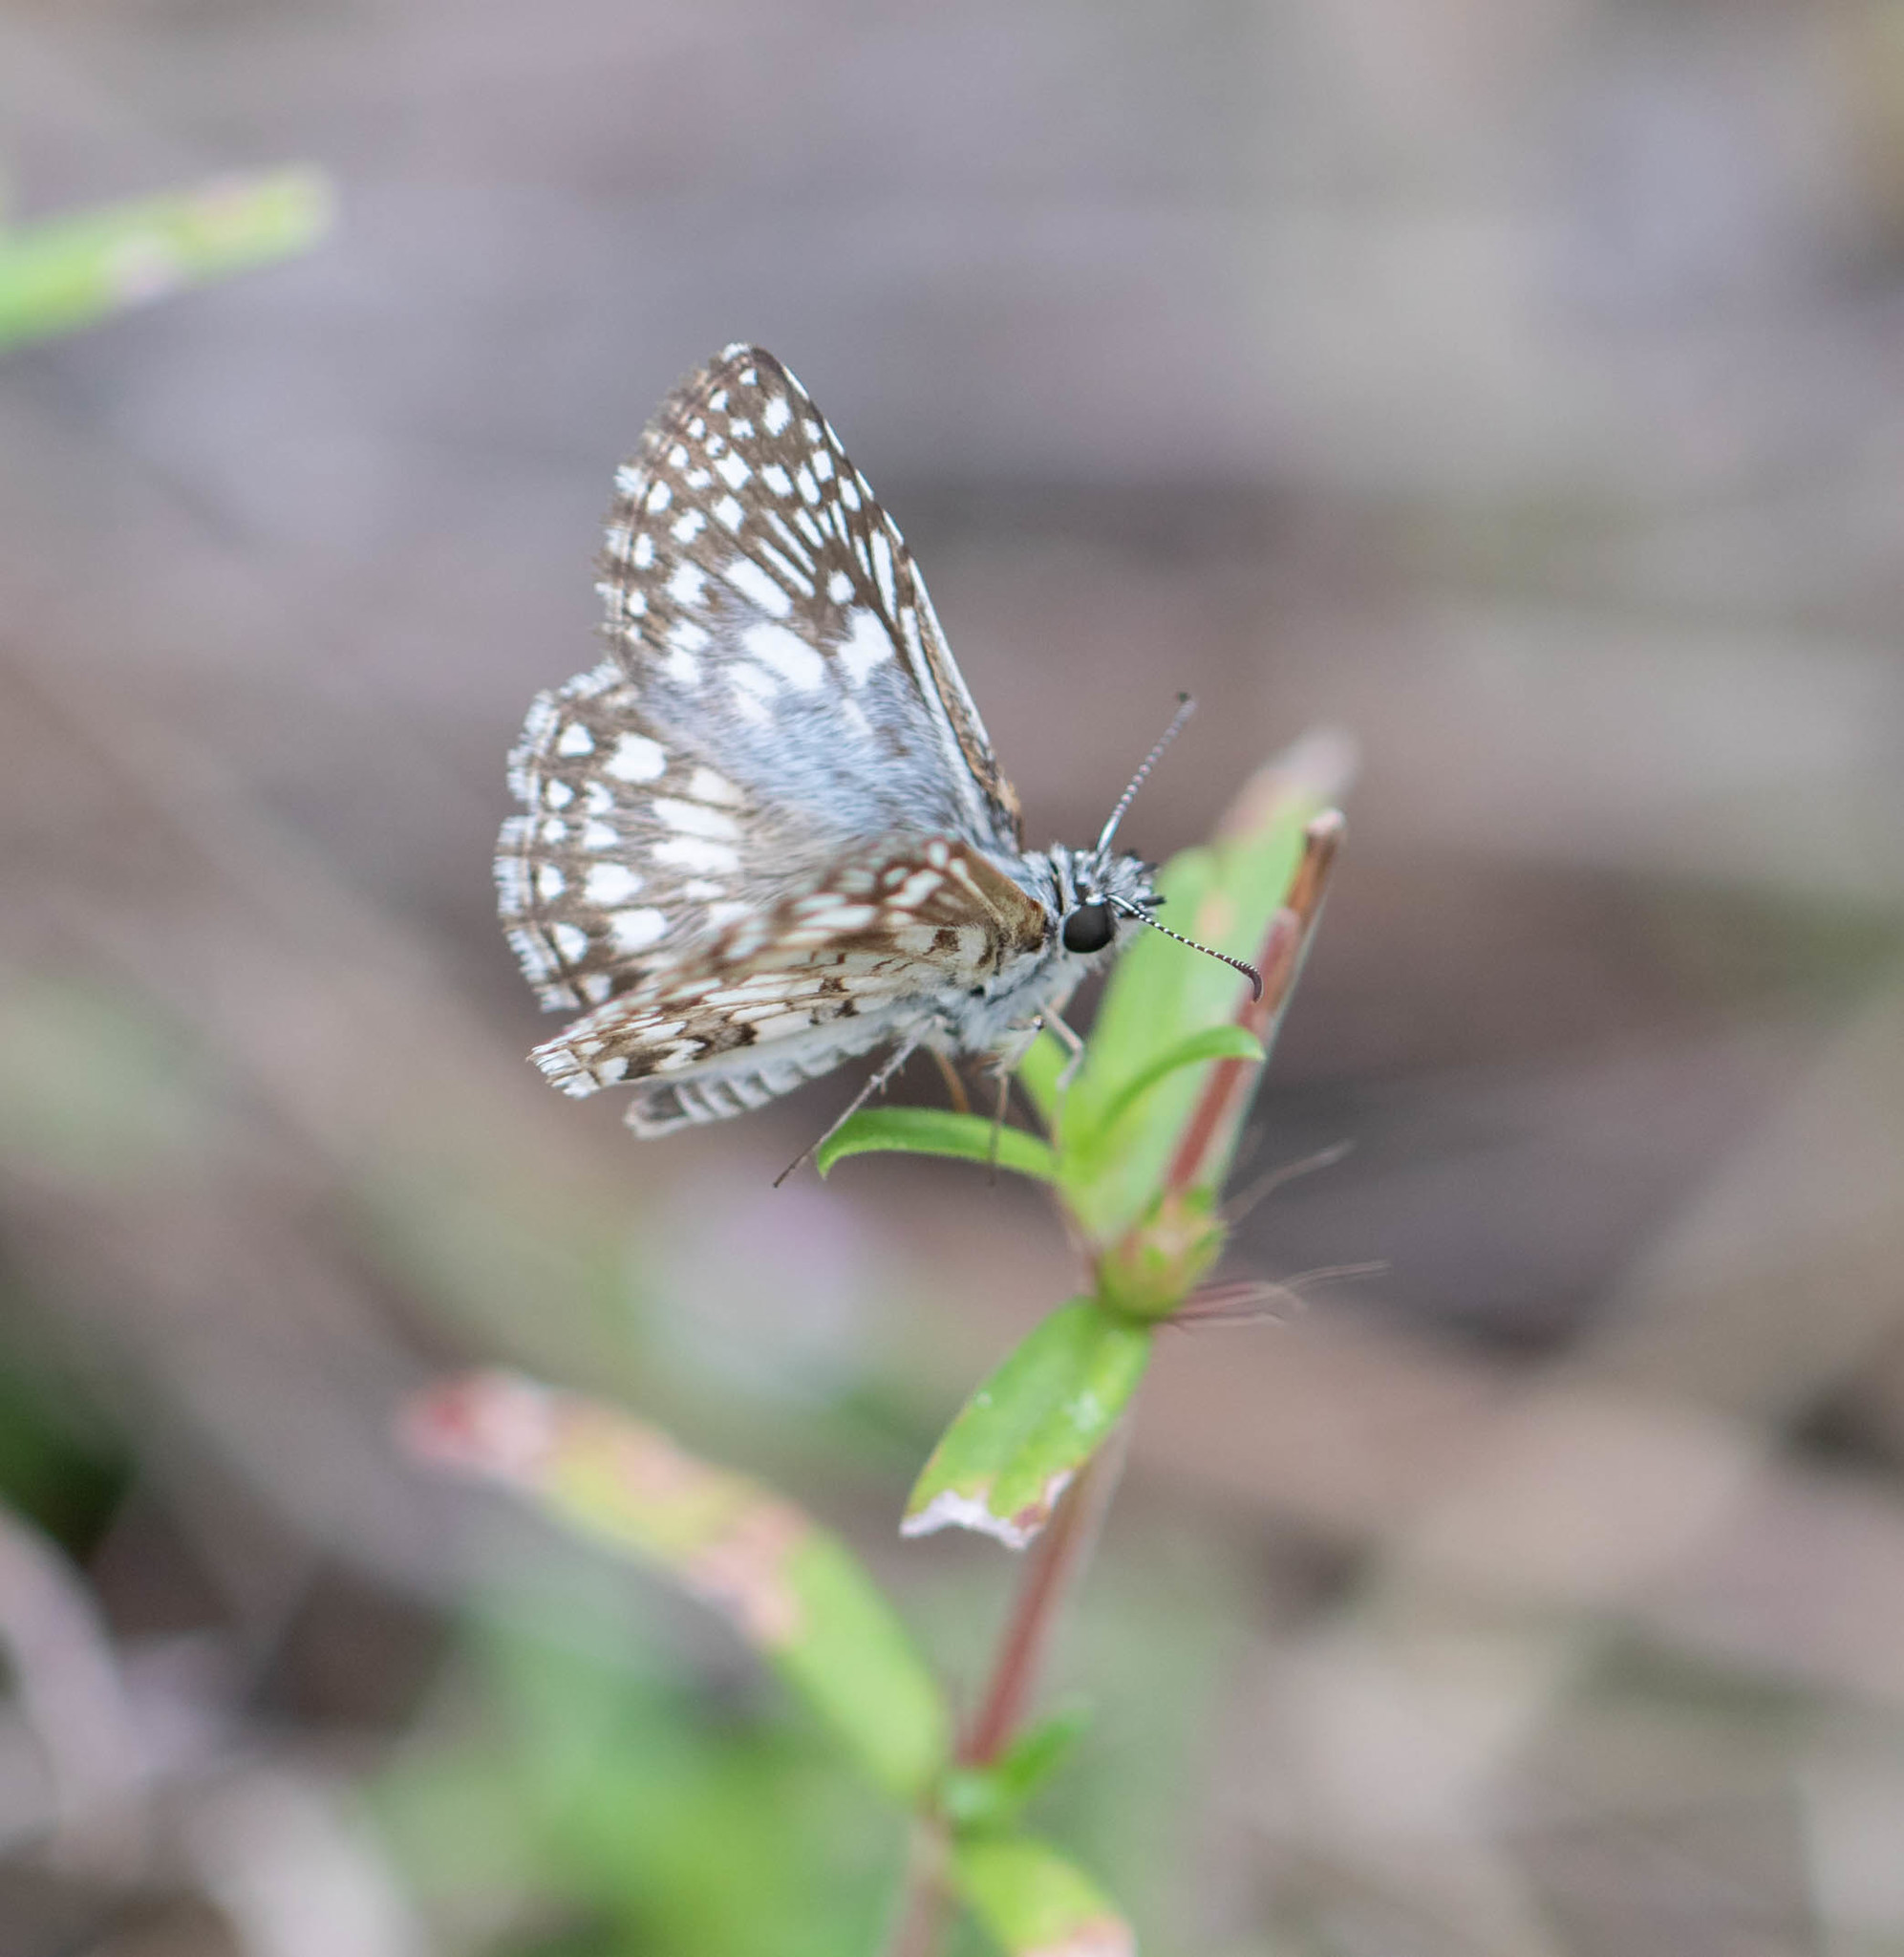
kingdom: Animalia
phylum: Arthropoda
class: Insecta
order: Lepidoptera
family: Hesperiidae
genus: Pyrgus
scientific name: Pyrgus oileus
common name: Tropical checkered-skipper
